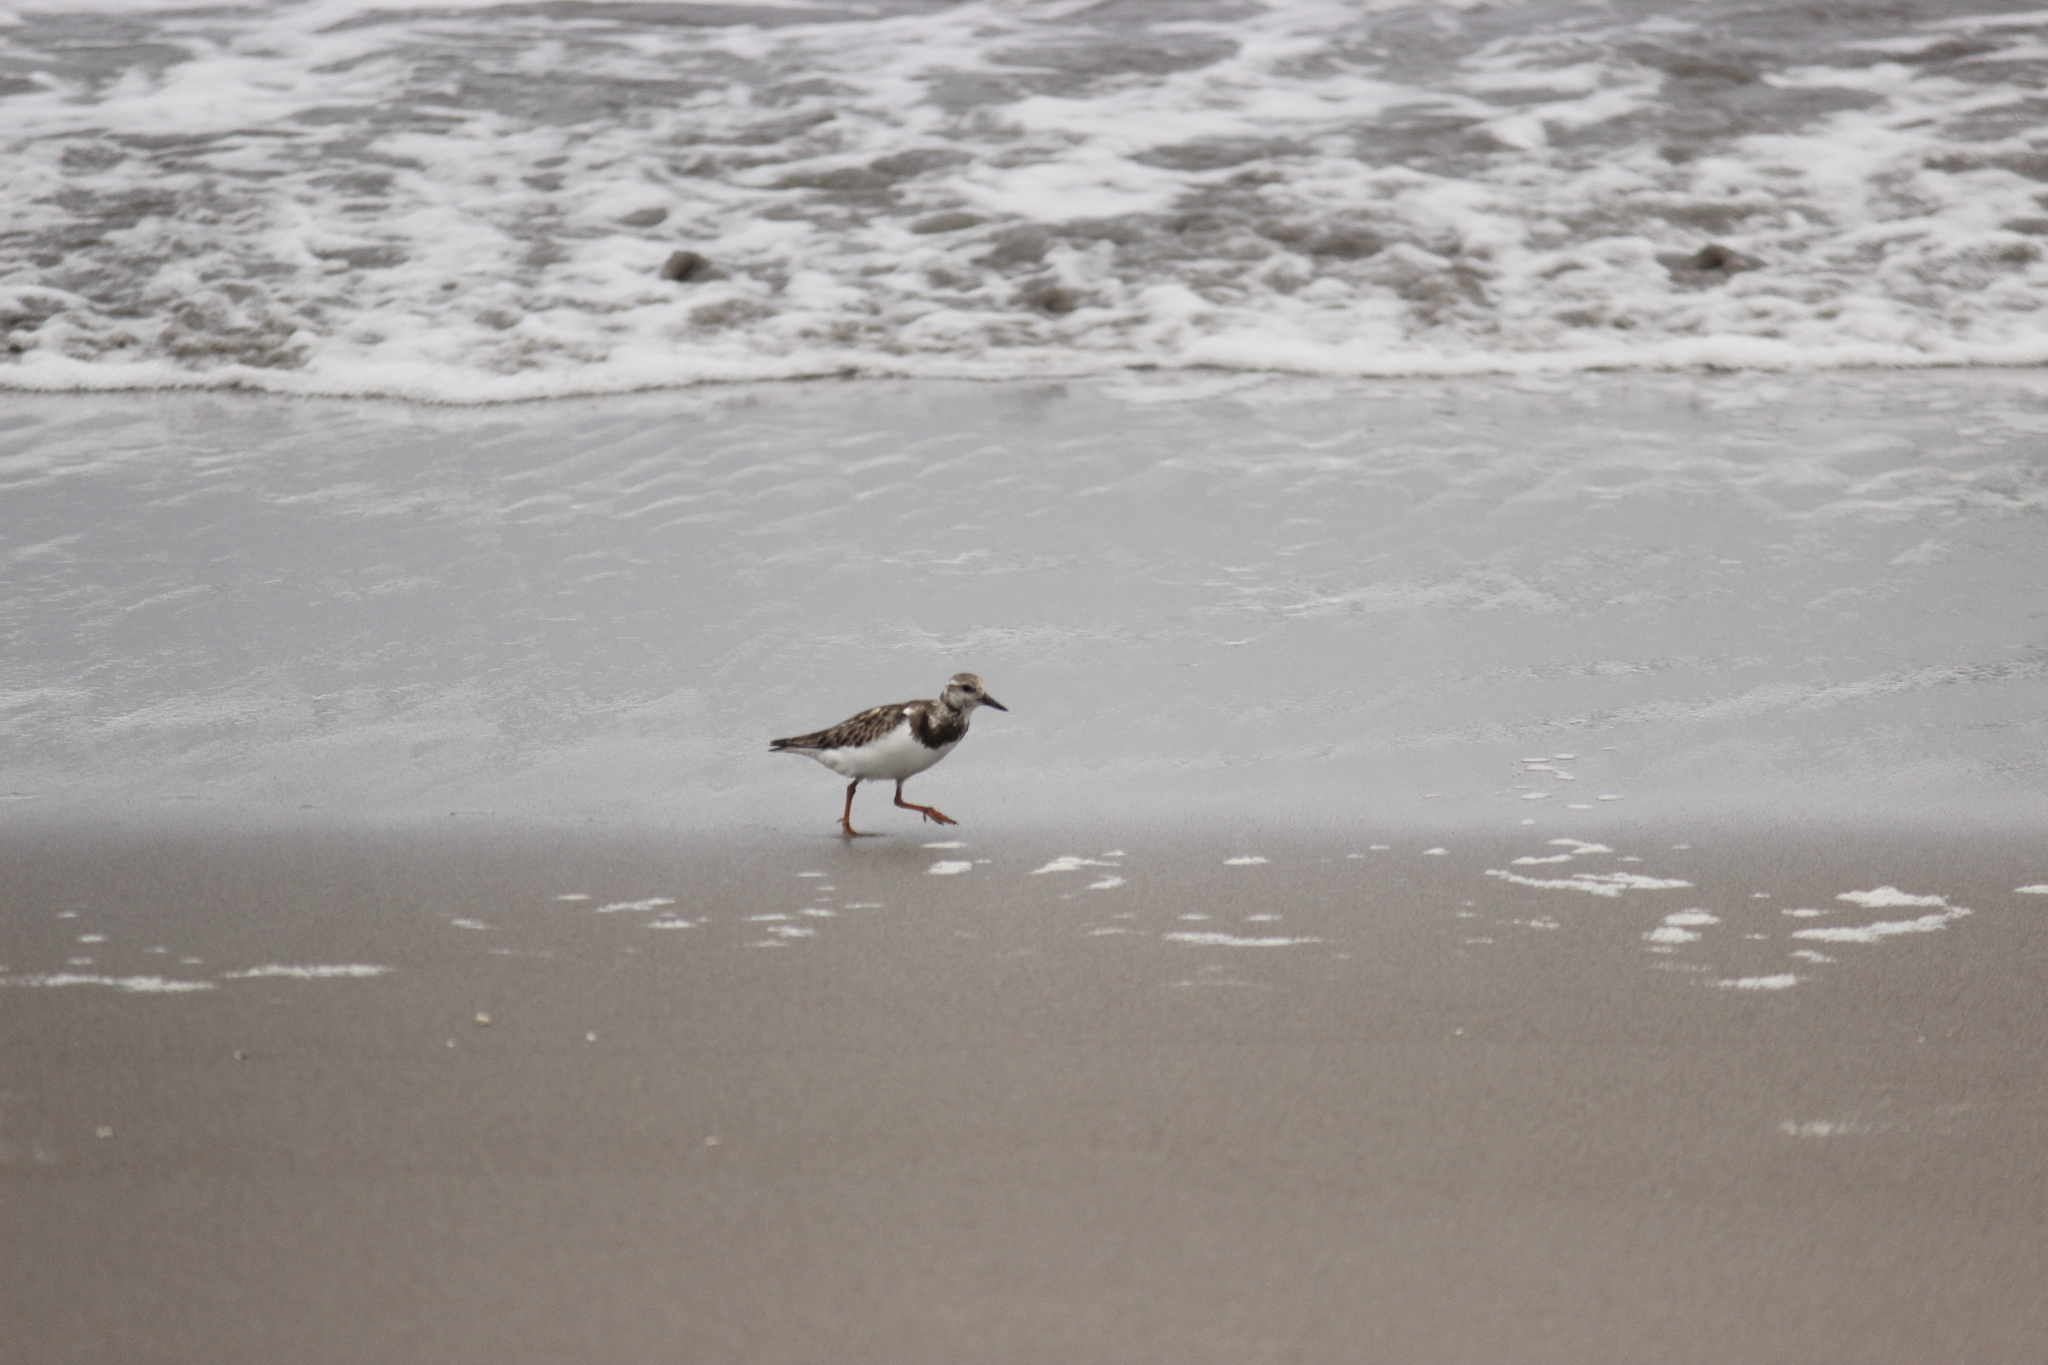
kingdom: Animalia
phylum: Chordata
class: Aves
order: Charadriiformes
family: Scolopacidae
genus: Arenaria
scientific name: Arenaria interpres
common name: Ruddy turnstone
